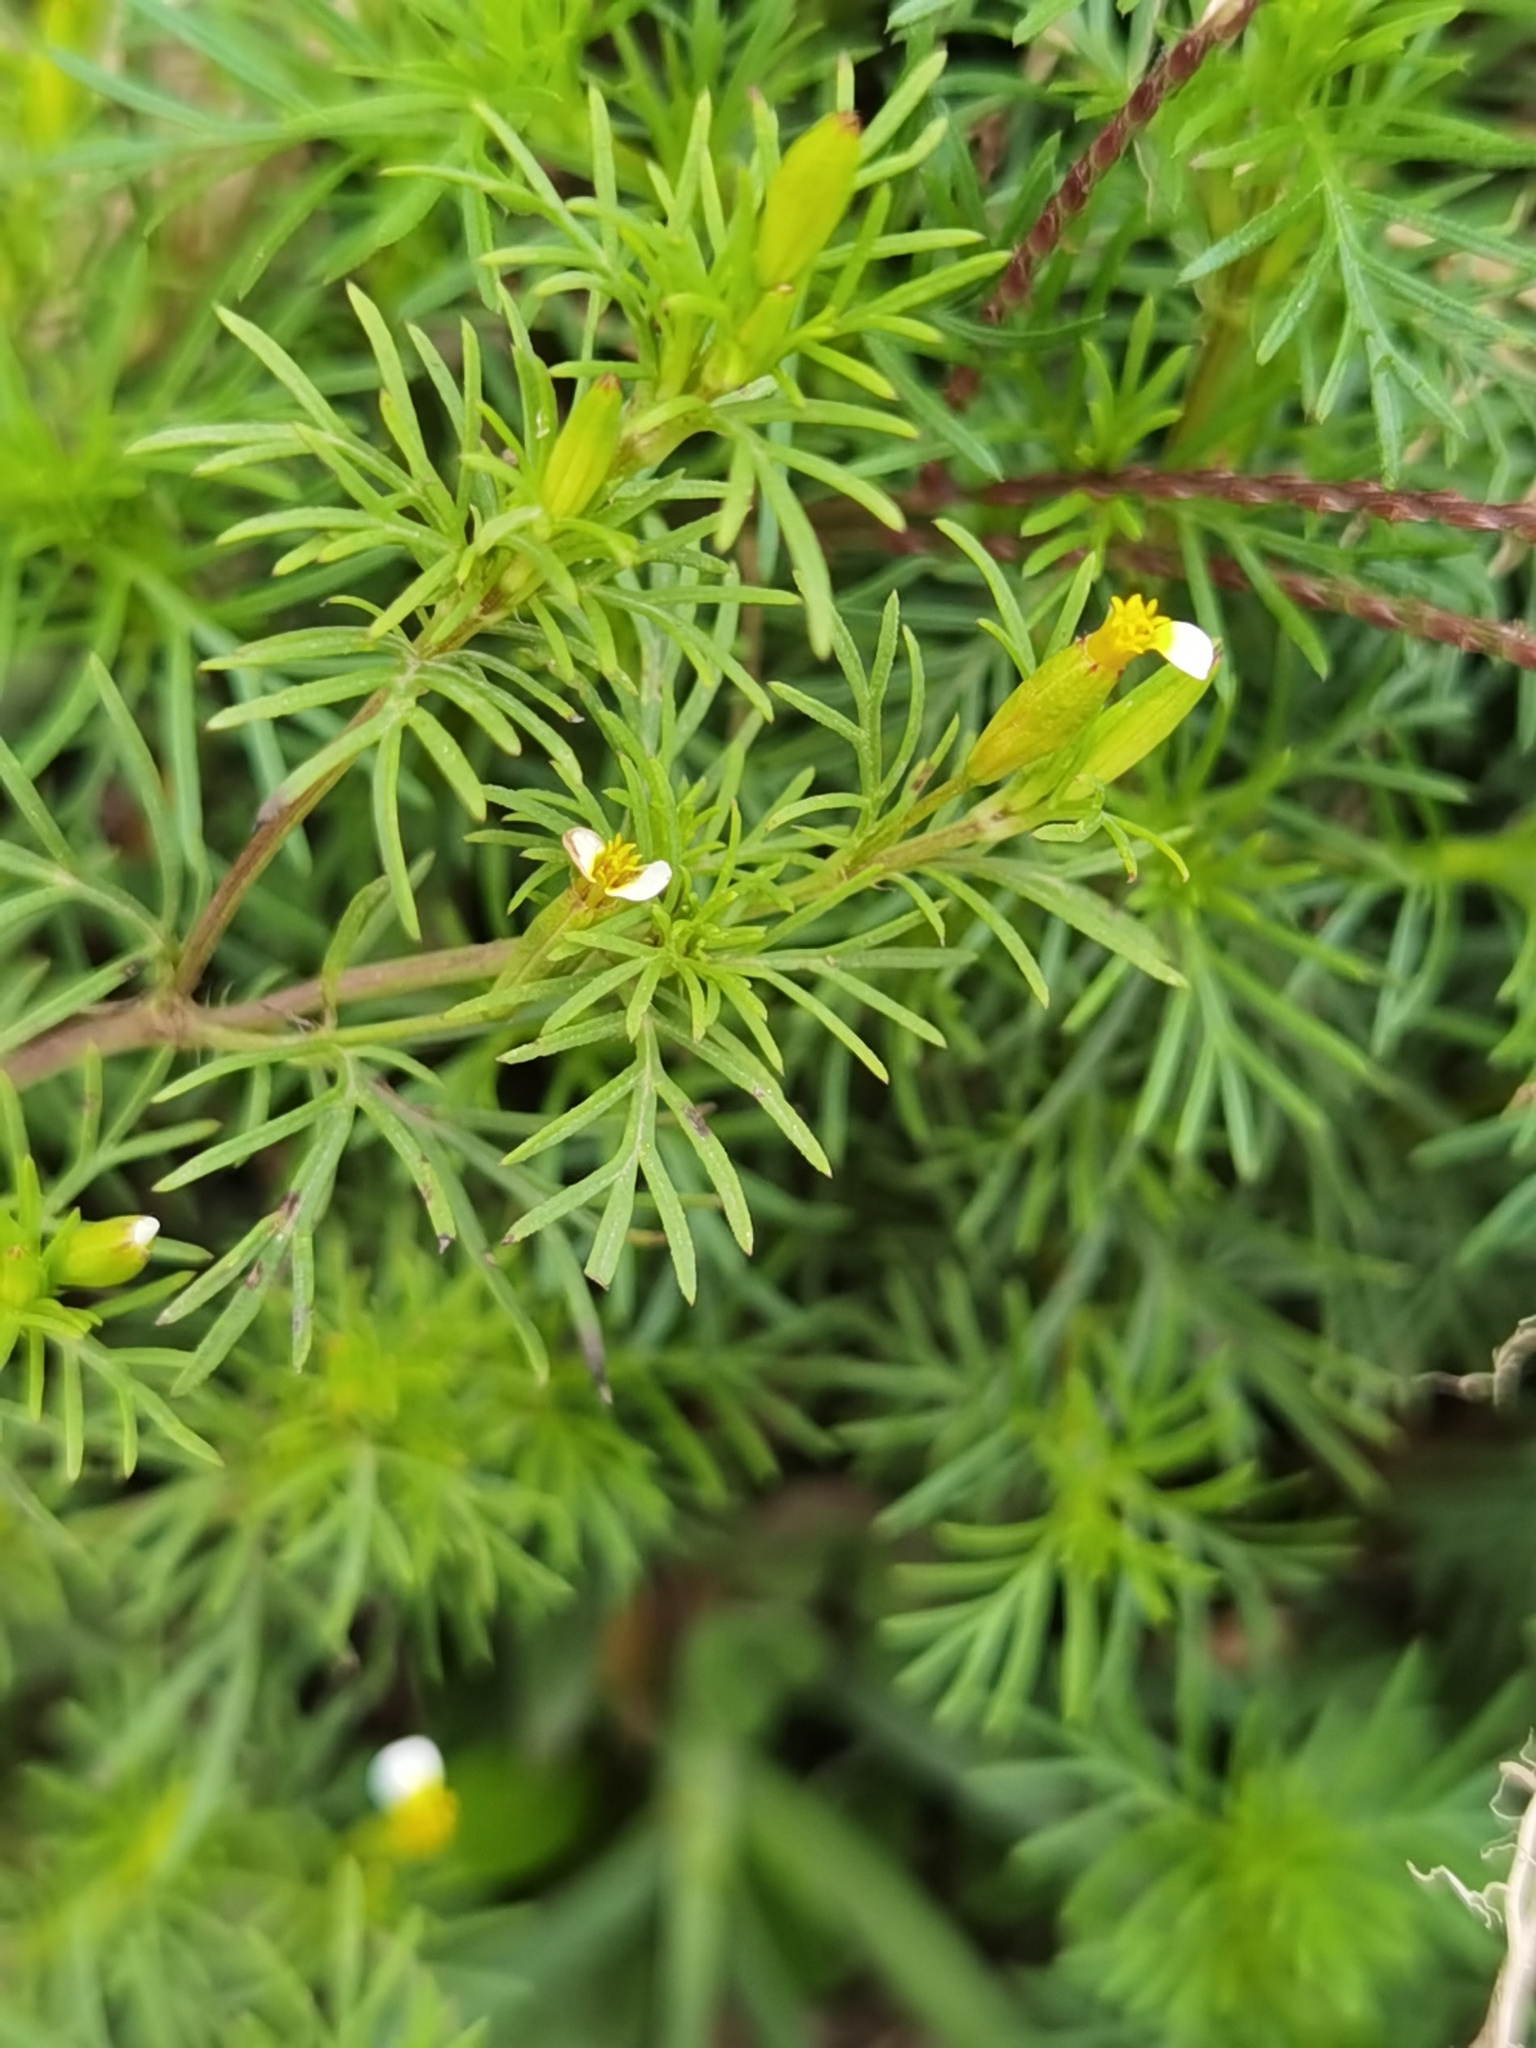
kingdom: Plantae
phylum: Tracheophyta
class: Magnoliopsida
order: Asterales
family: Asteraceae
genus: Tagetes
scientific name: Tagetes filifolia
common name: Lesser marigold
